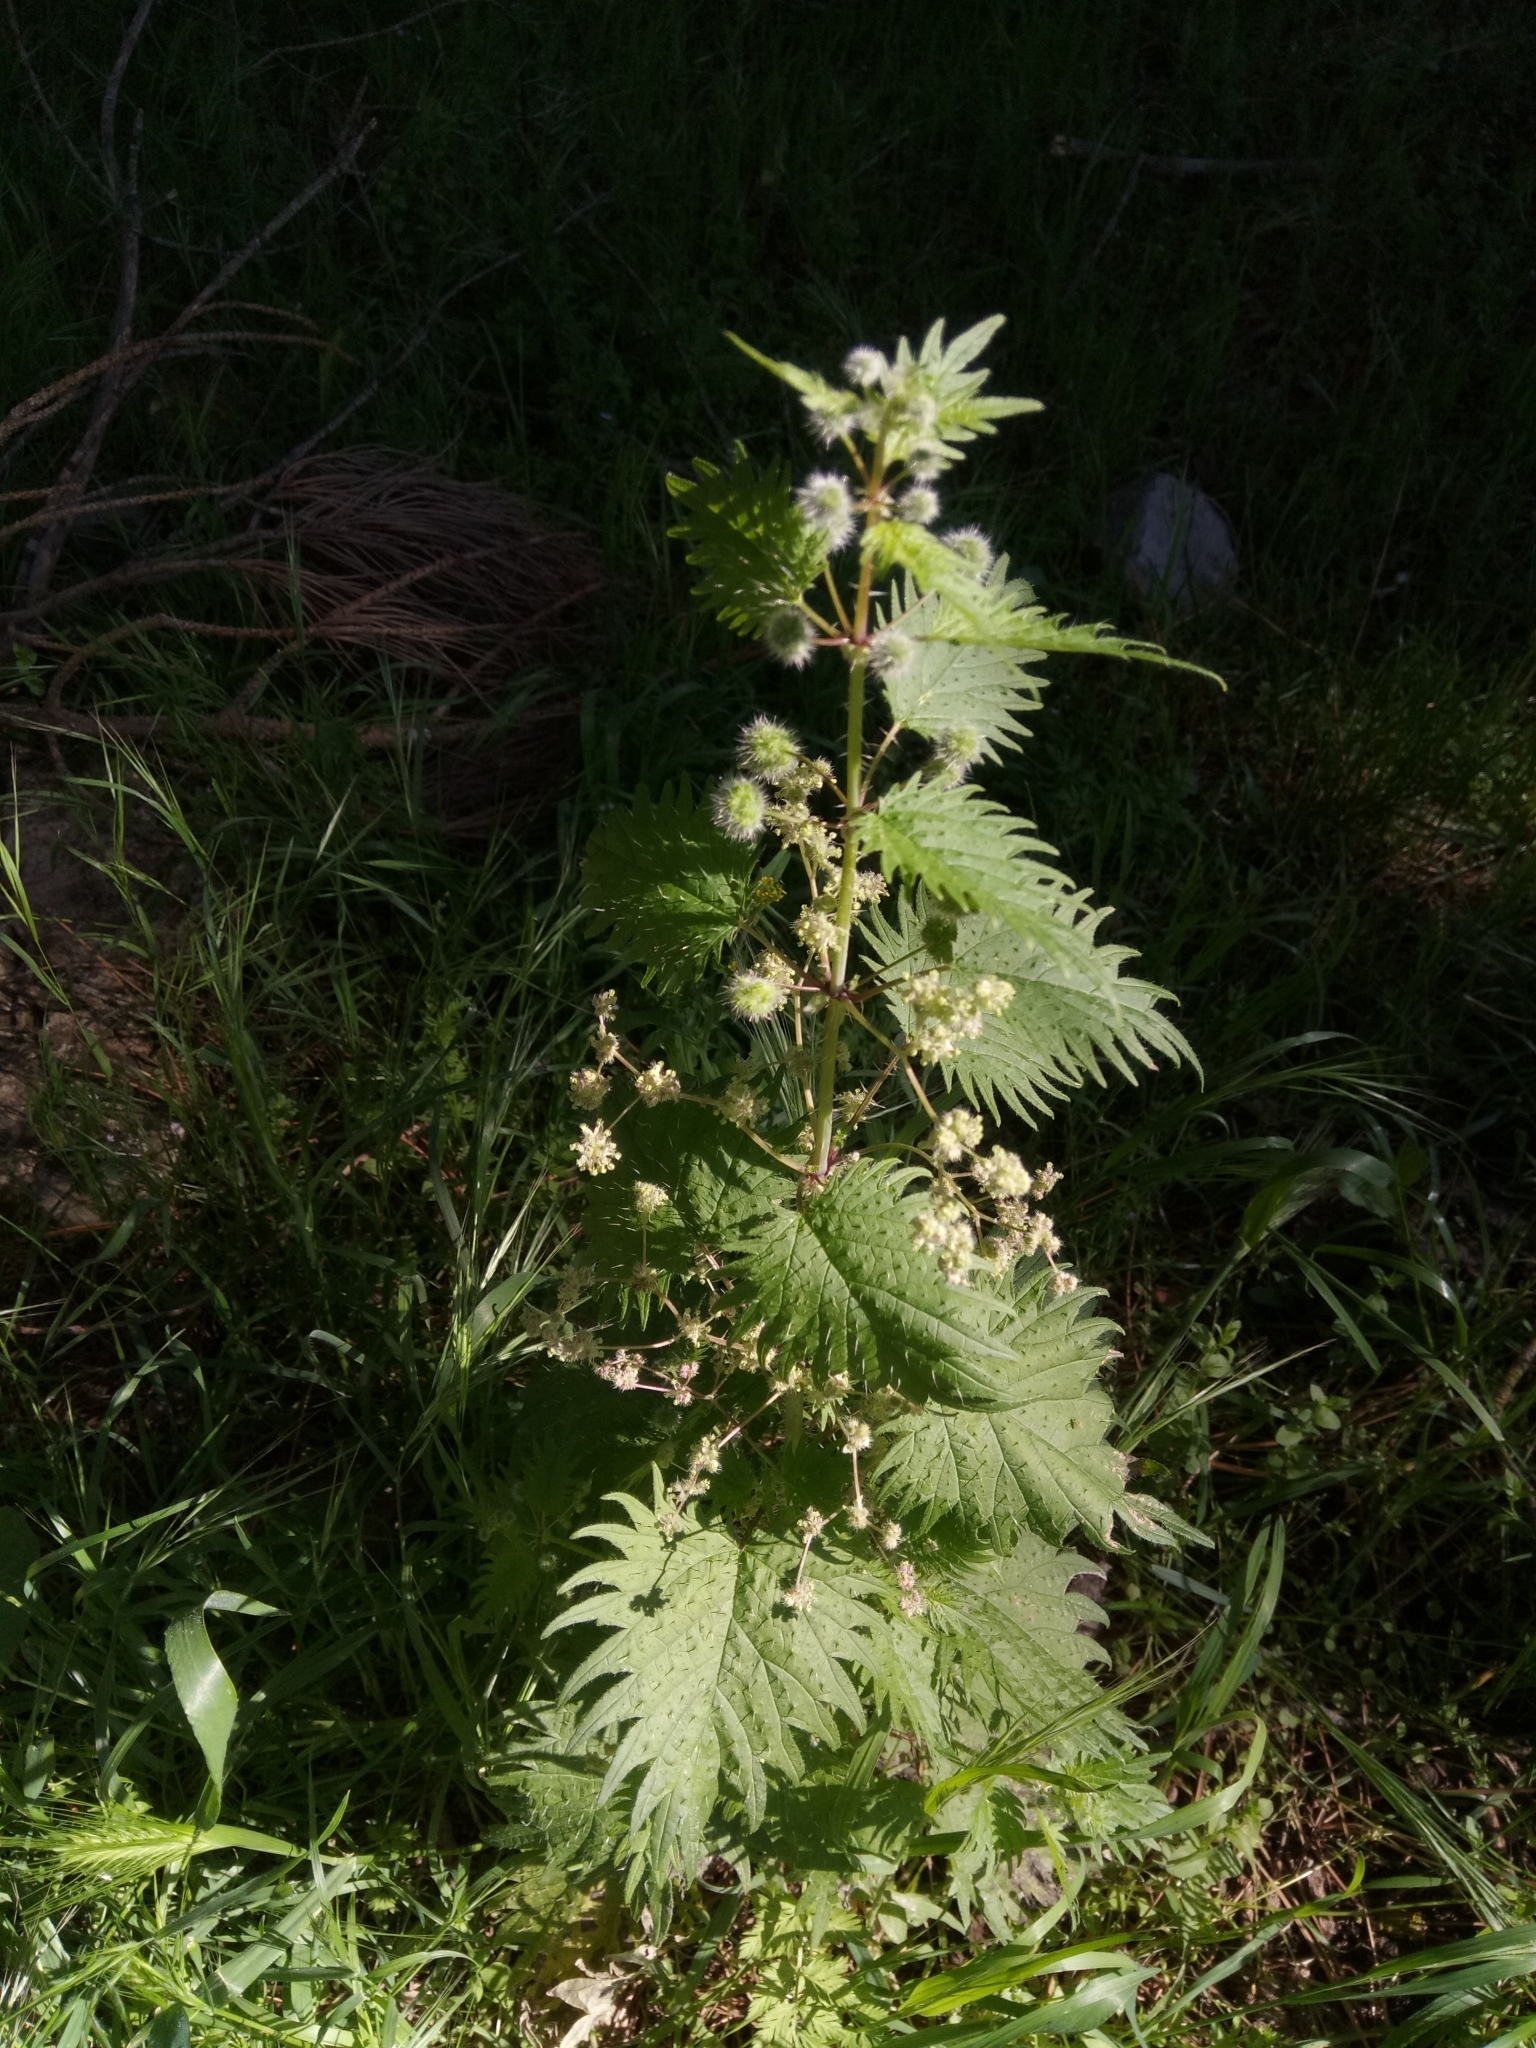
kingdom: Plantae
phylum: Tracheophyta
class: Magnoliopsida
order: Rosales
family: Urticaceae
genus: Urtica
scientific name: Urtica pilulifera
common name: Roman nettle
